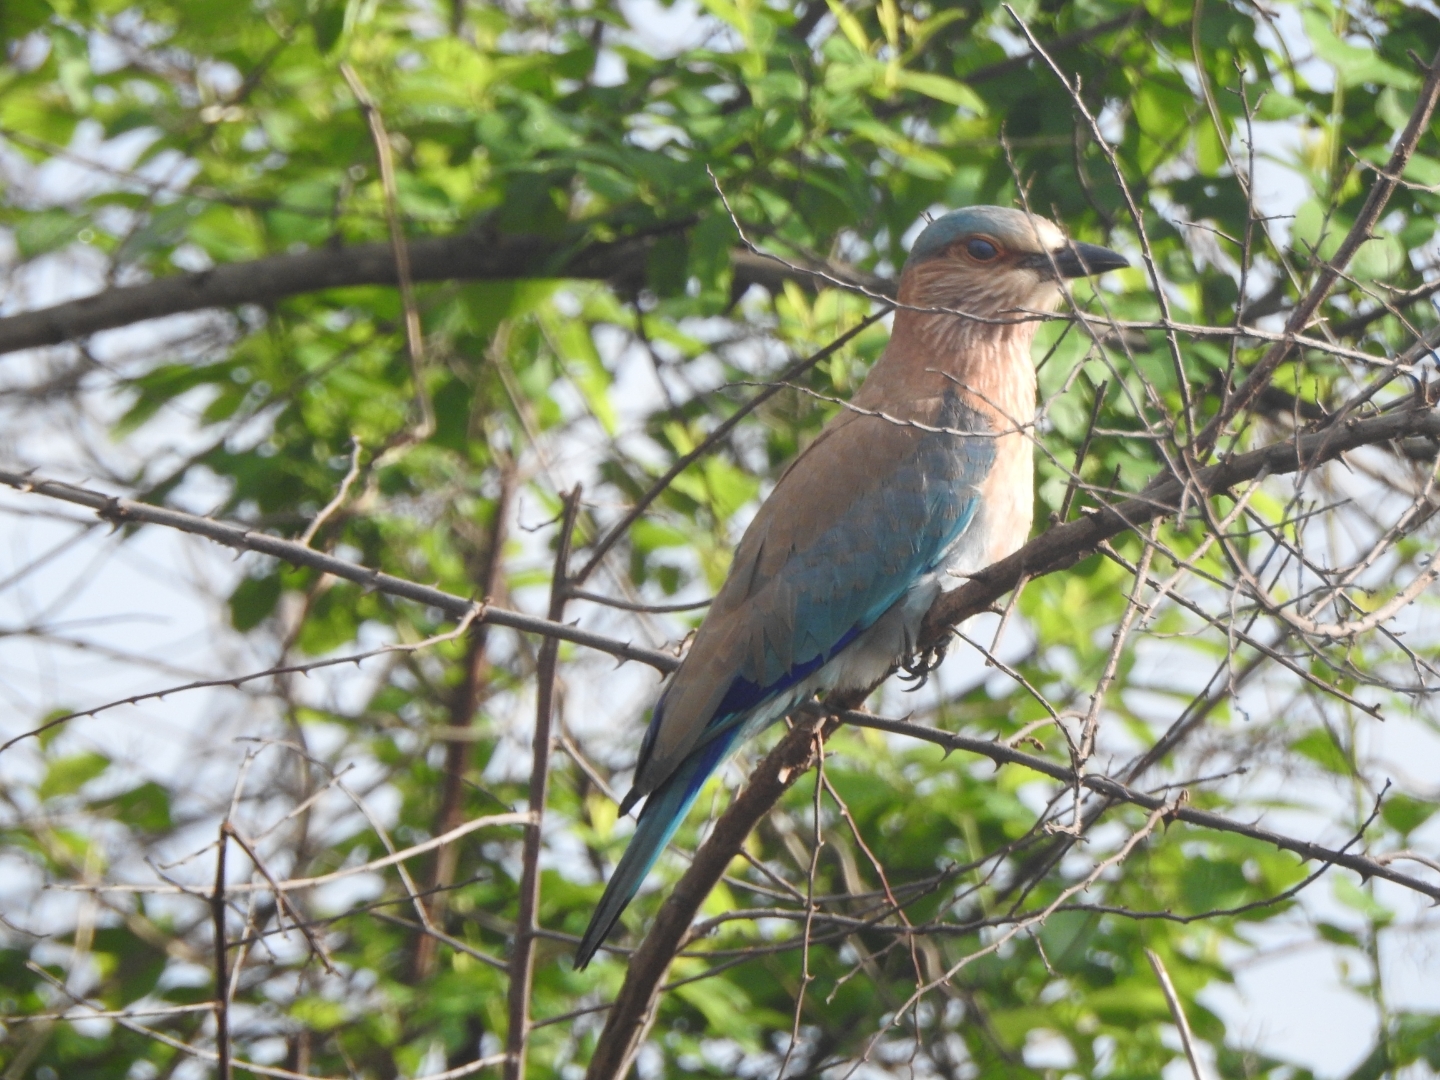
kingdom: Animalia
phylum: Chordata
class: Aves
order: Coraciiformes
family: Coraciidae
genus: Coracias
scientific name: Coracias benghalensis
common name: Indian roller
